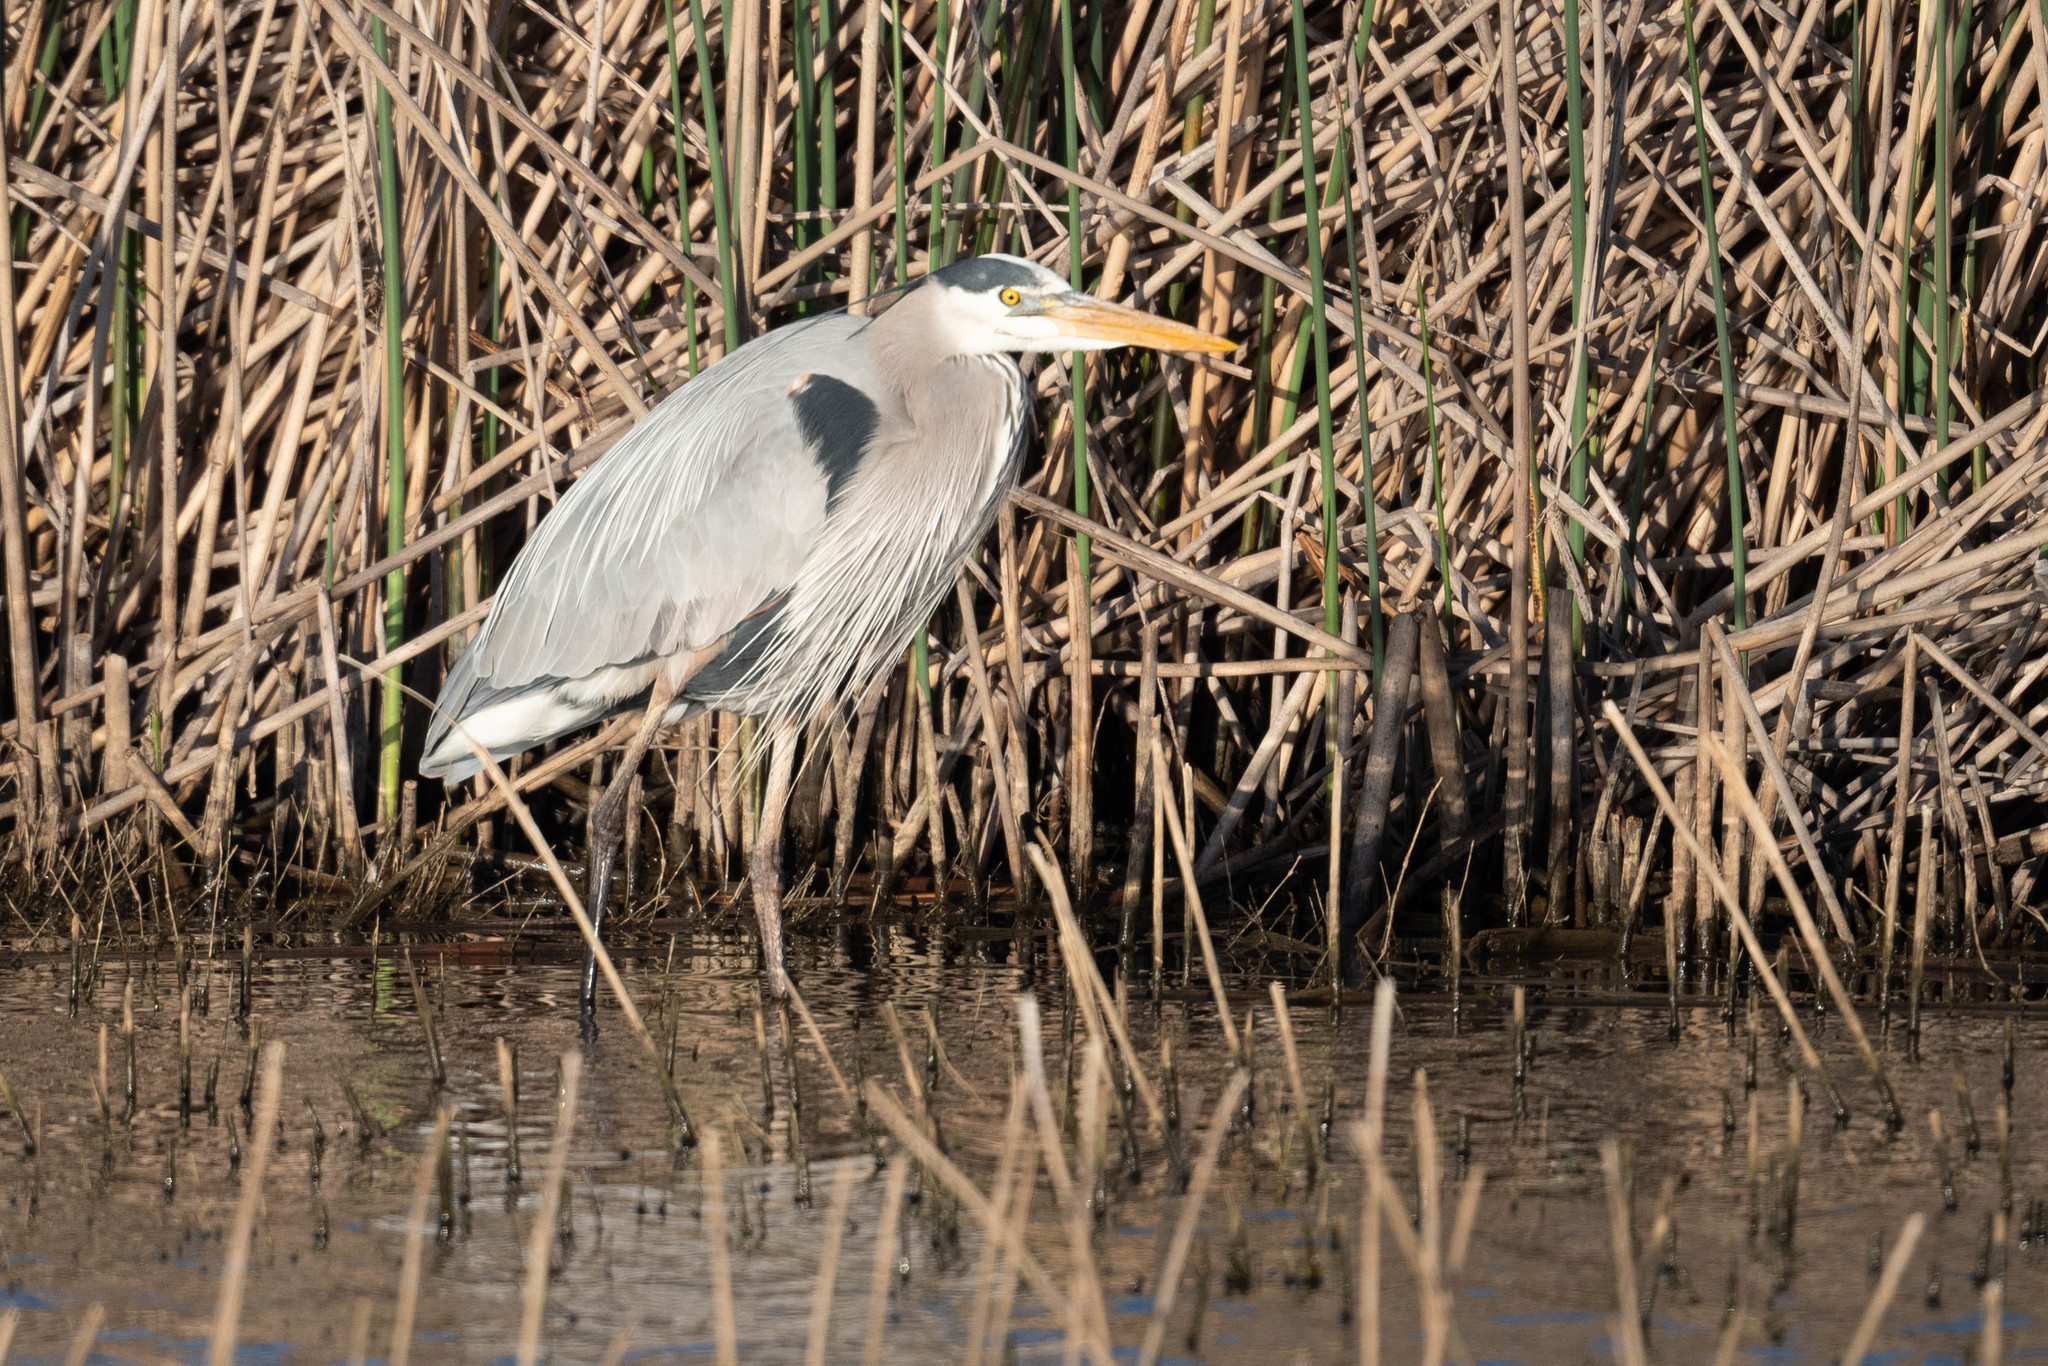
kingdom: Animalia
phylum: Chordata
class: Aves
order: Pelecaniformes
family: Ardeidae
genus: Ardea
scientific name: Ardea herodias
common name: Great blue heron
